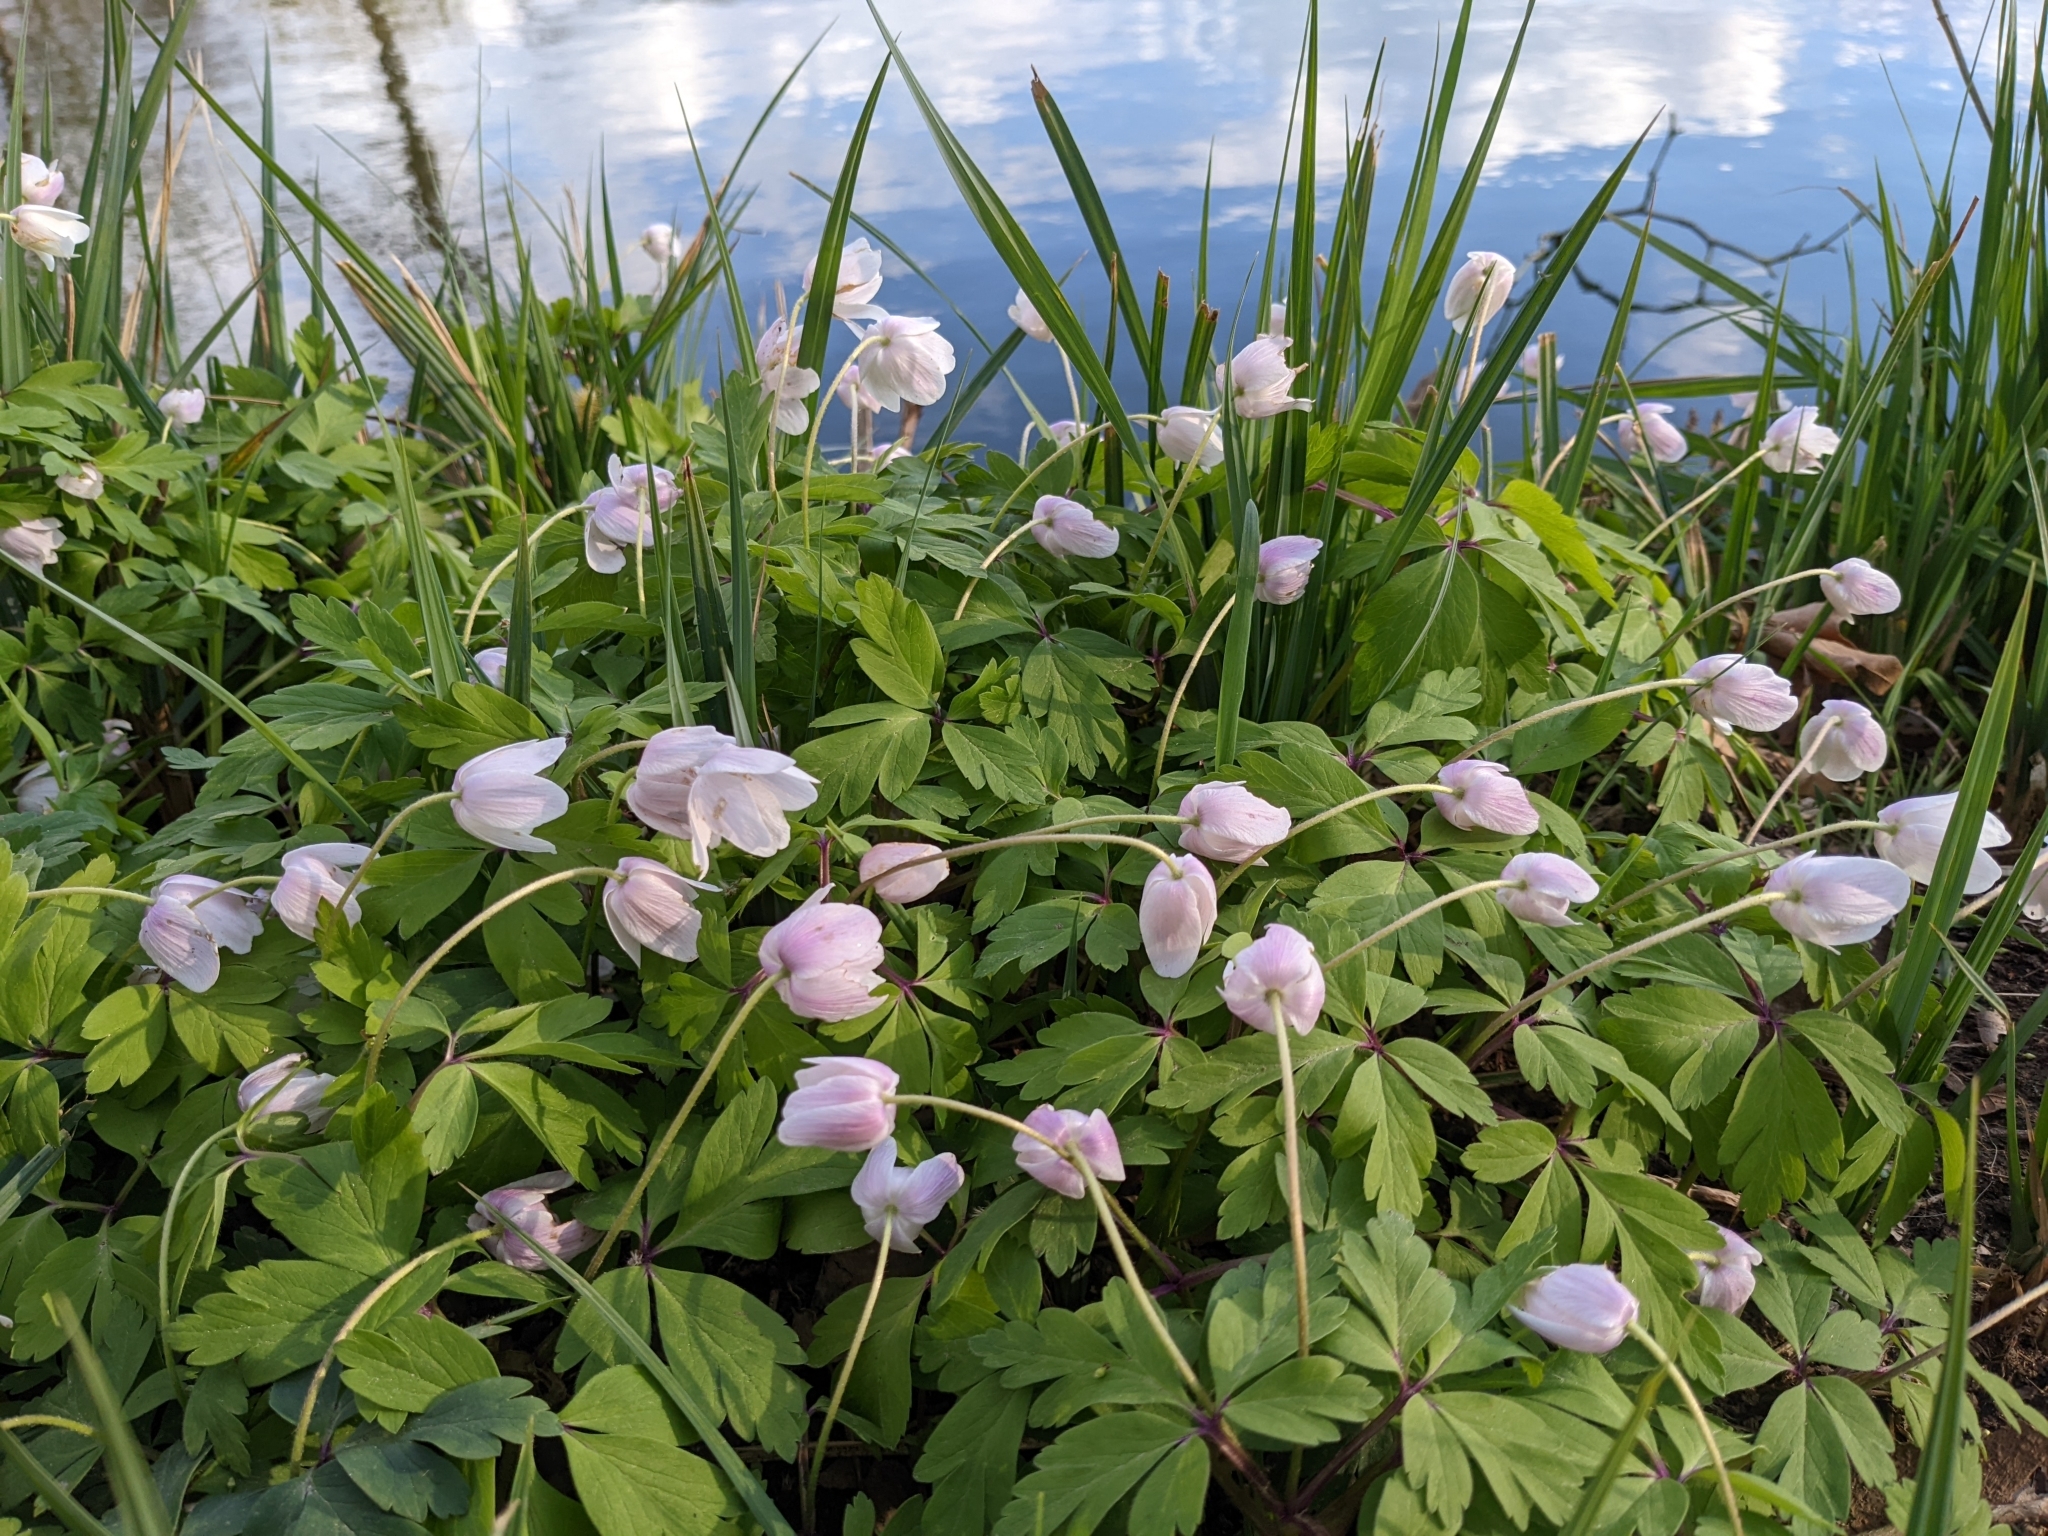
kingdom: Plantae
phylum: Tracheophyta
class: Magnoliopsida
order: Ranunculales
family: Ranunculaceae
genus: Anemone
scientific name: Anemone nemorosa
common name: Wood anemone
